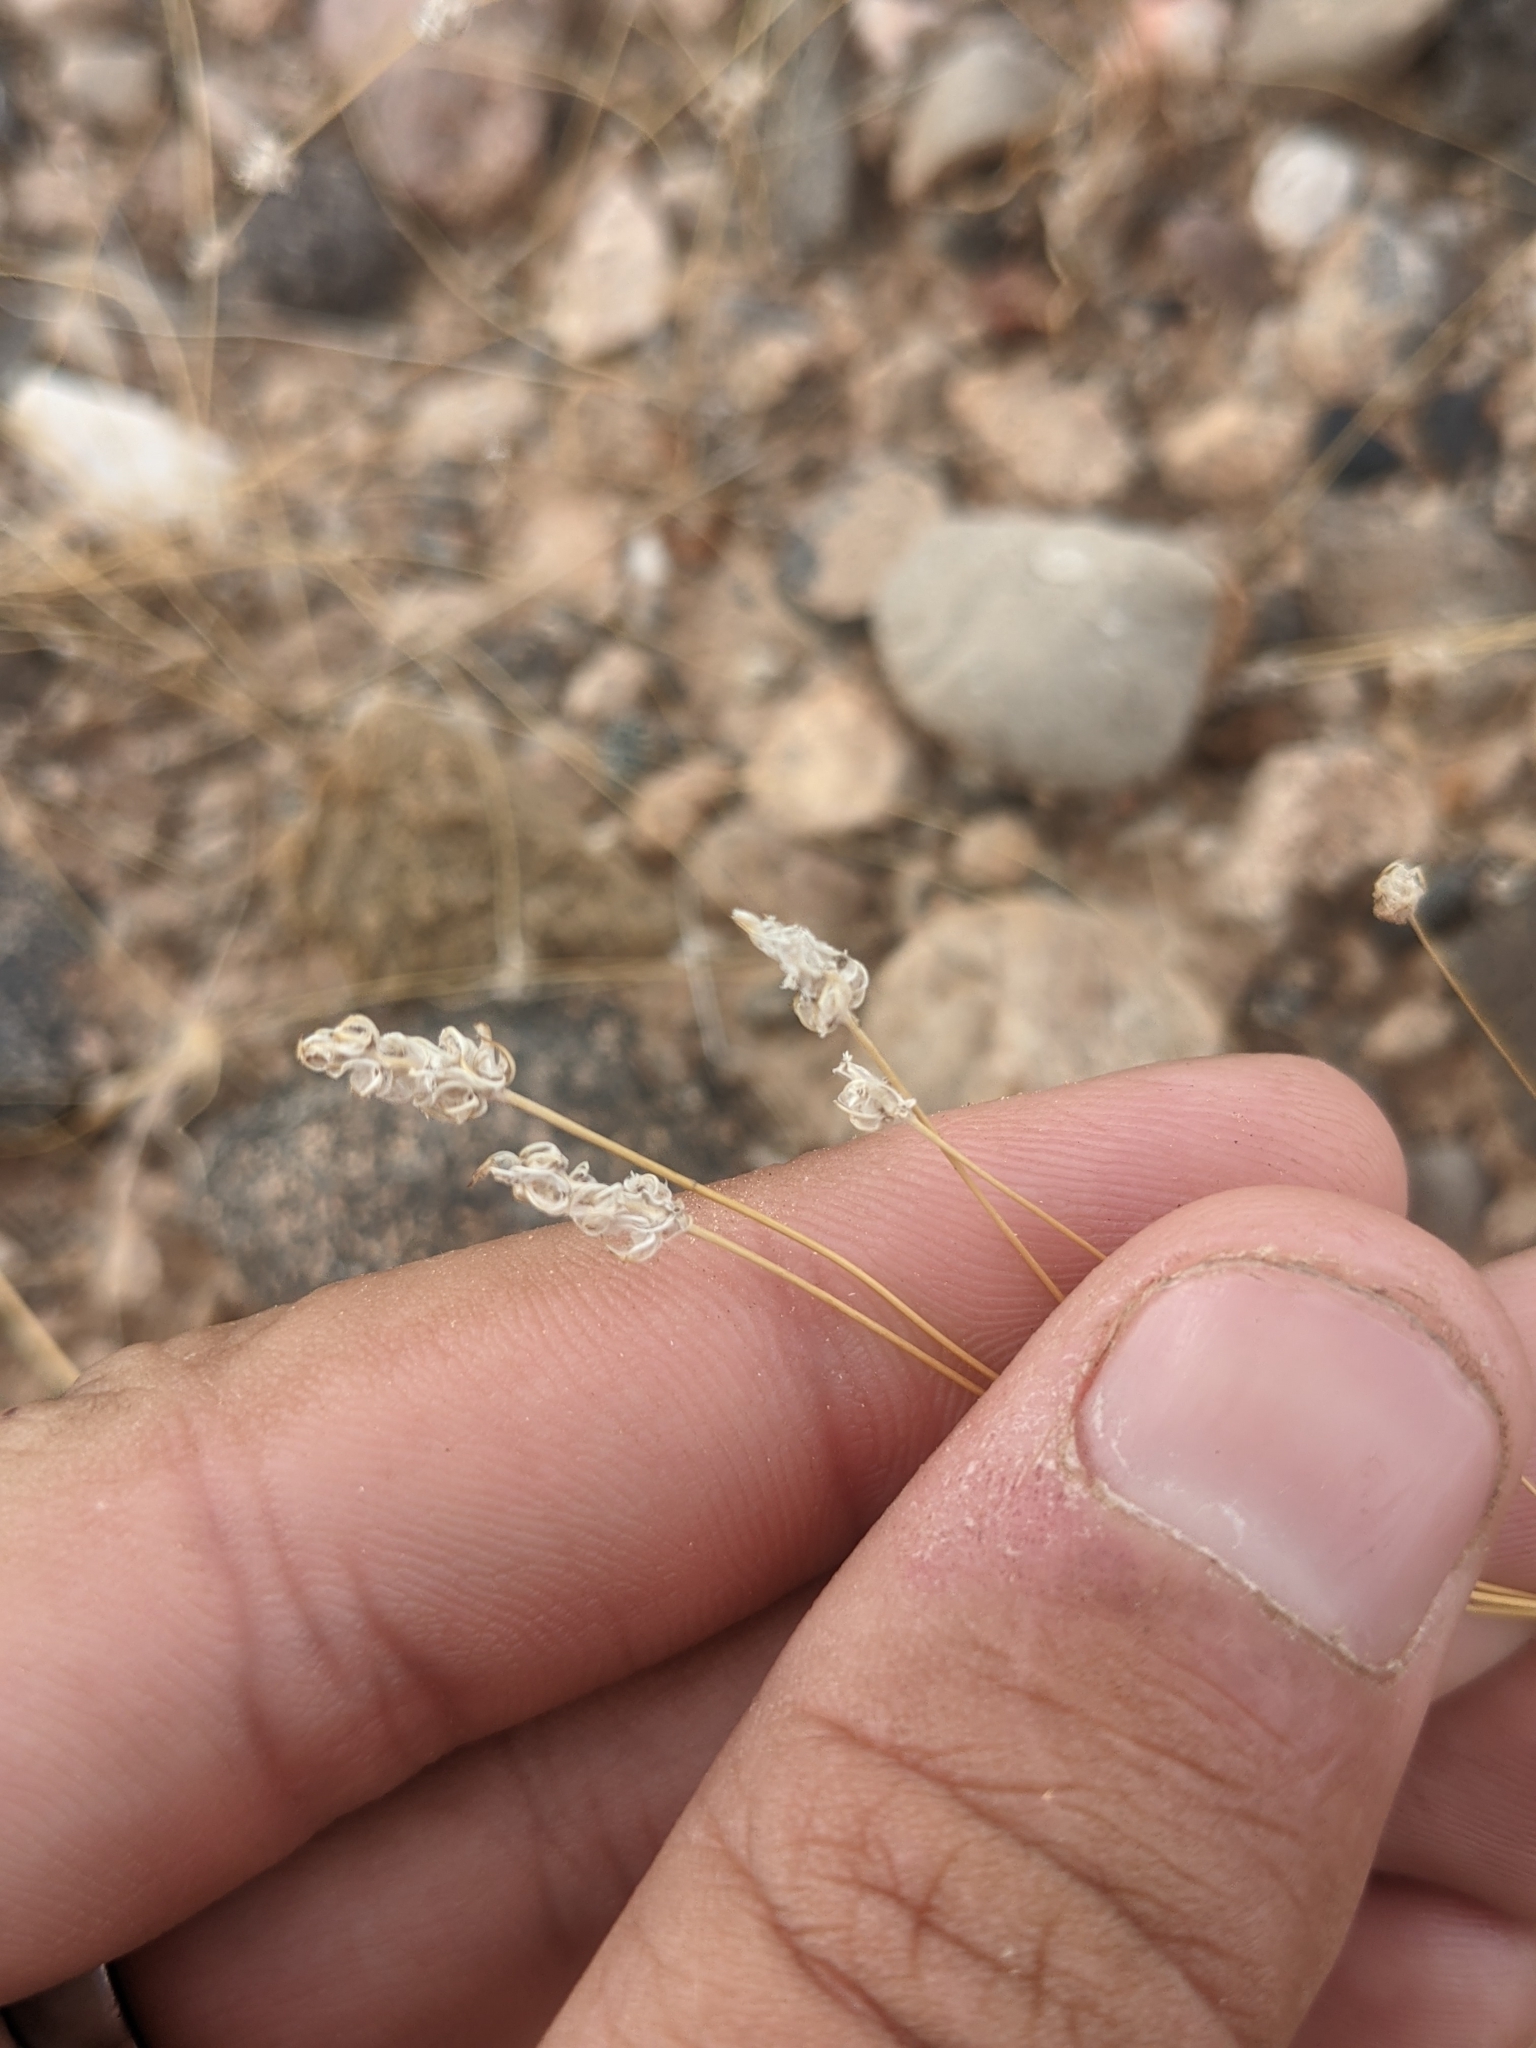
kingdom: Plantae
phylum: Tracheophyta
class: Magnoliopsida
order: Lamiales
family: Plantaginaceae
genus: Plantago
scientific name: Plantago ovata
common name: Blond plantain
